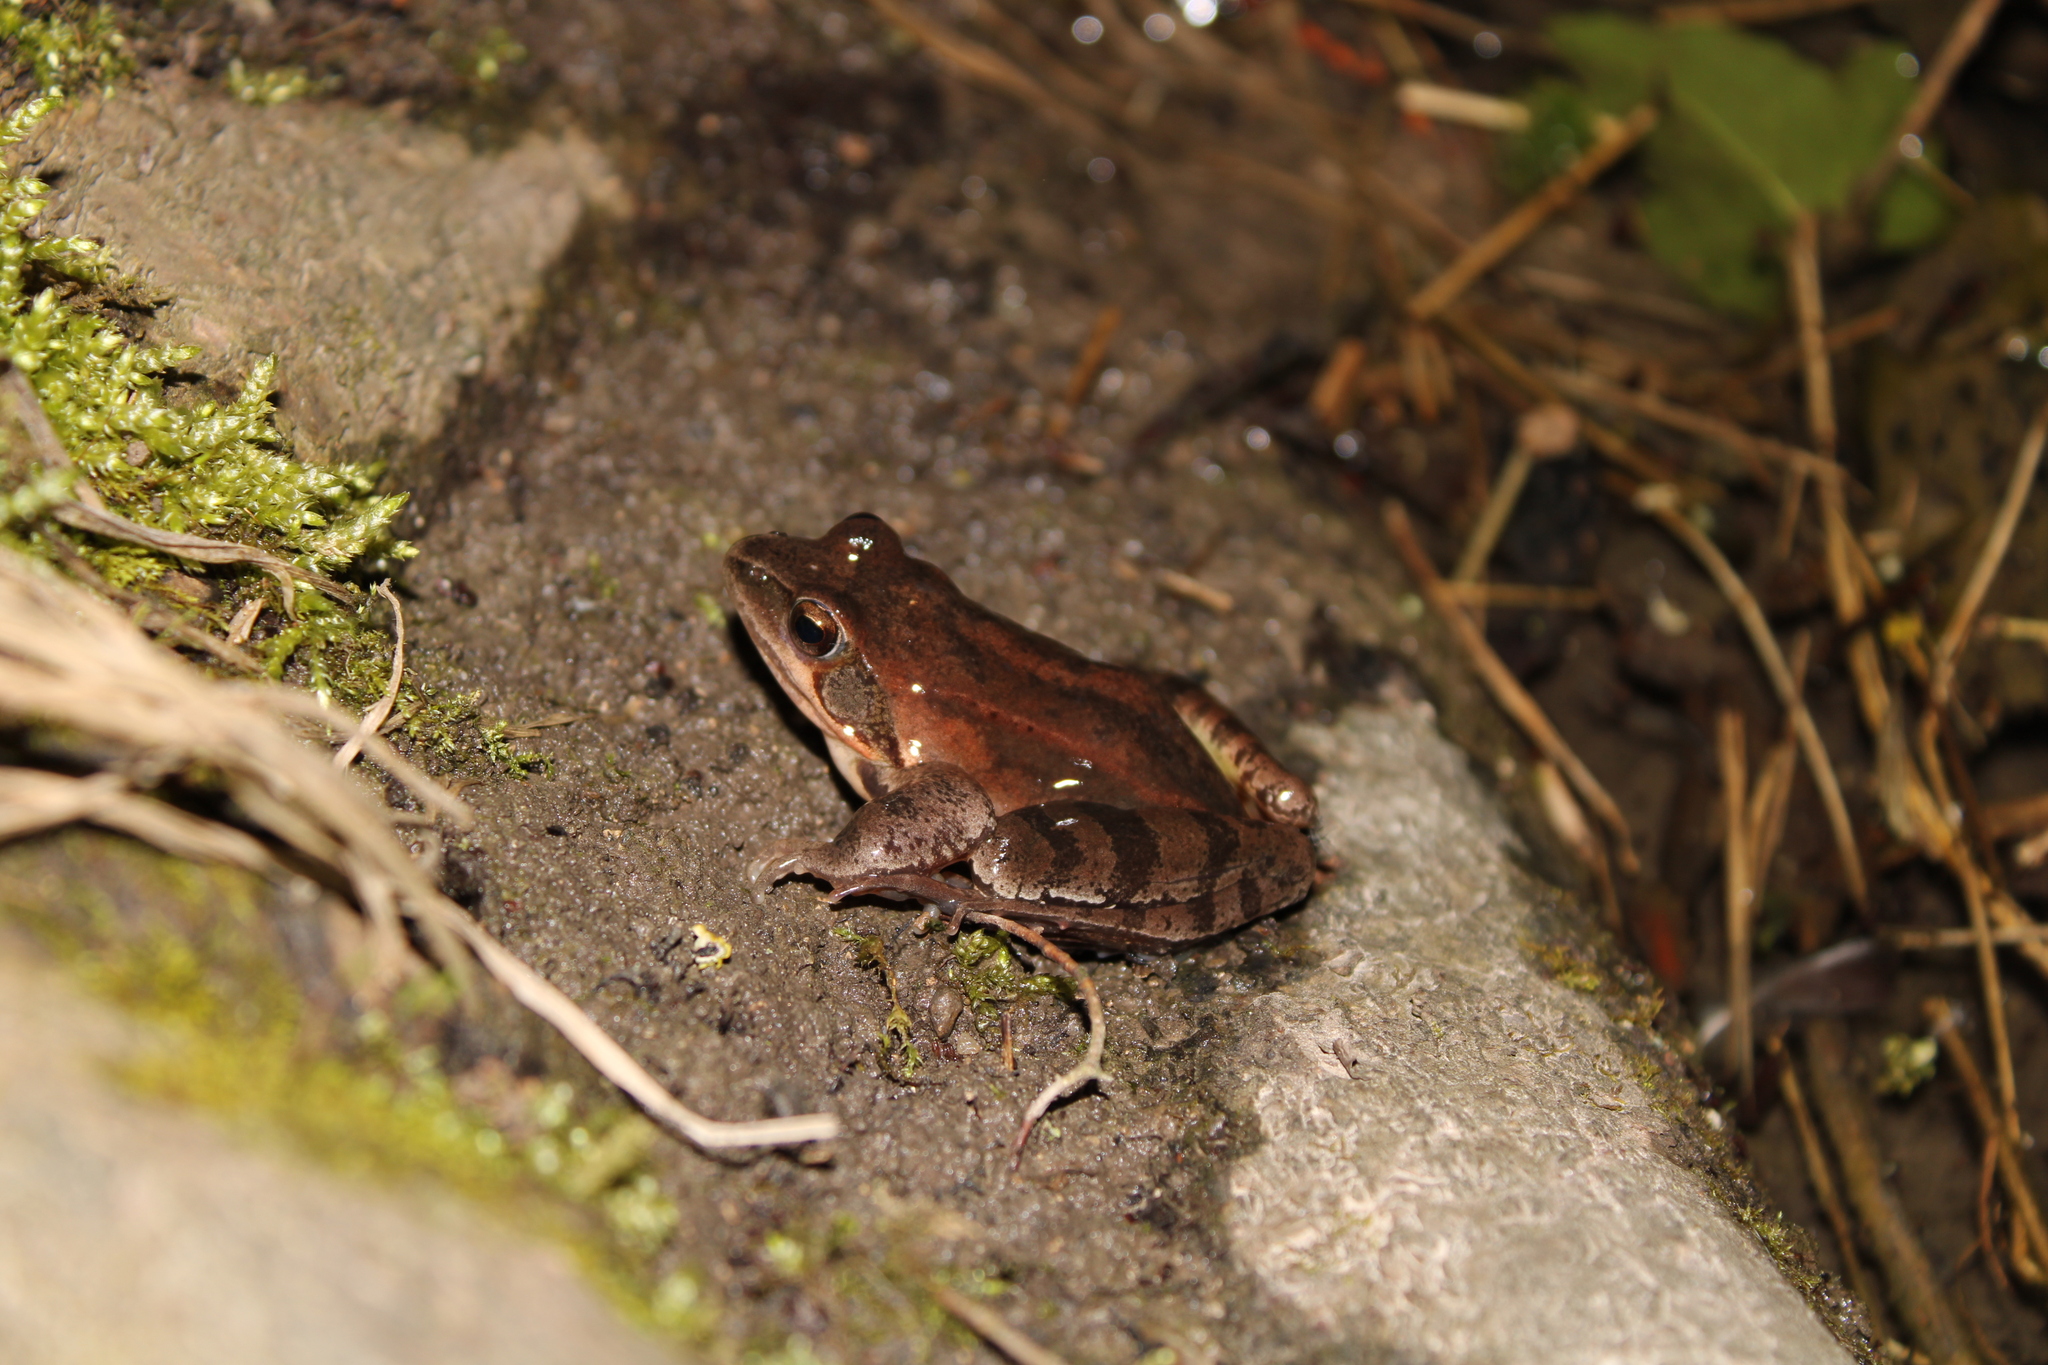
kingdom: Animalia
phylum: Chordata
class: Amphibia
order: Anura
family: Ranidae
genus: Rana
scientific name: Rana dalmatina
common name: Agile frog
